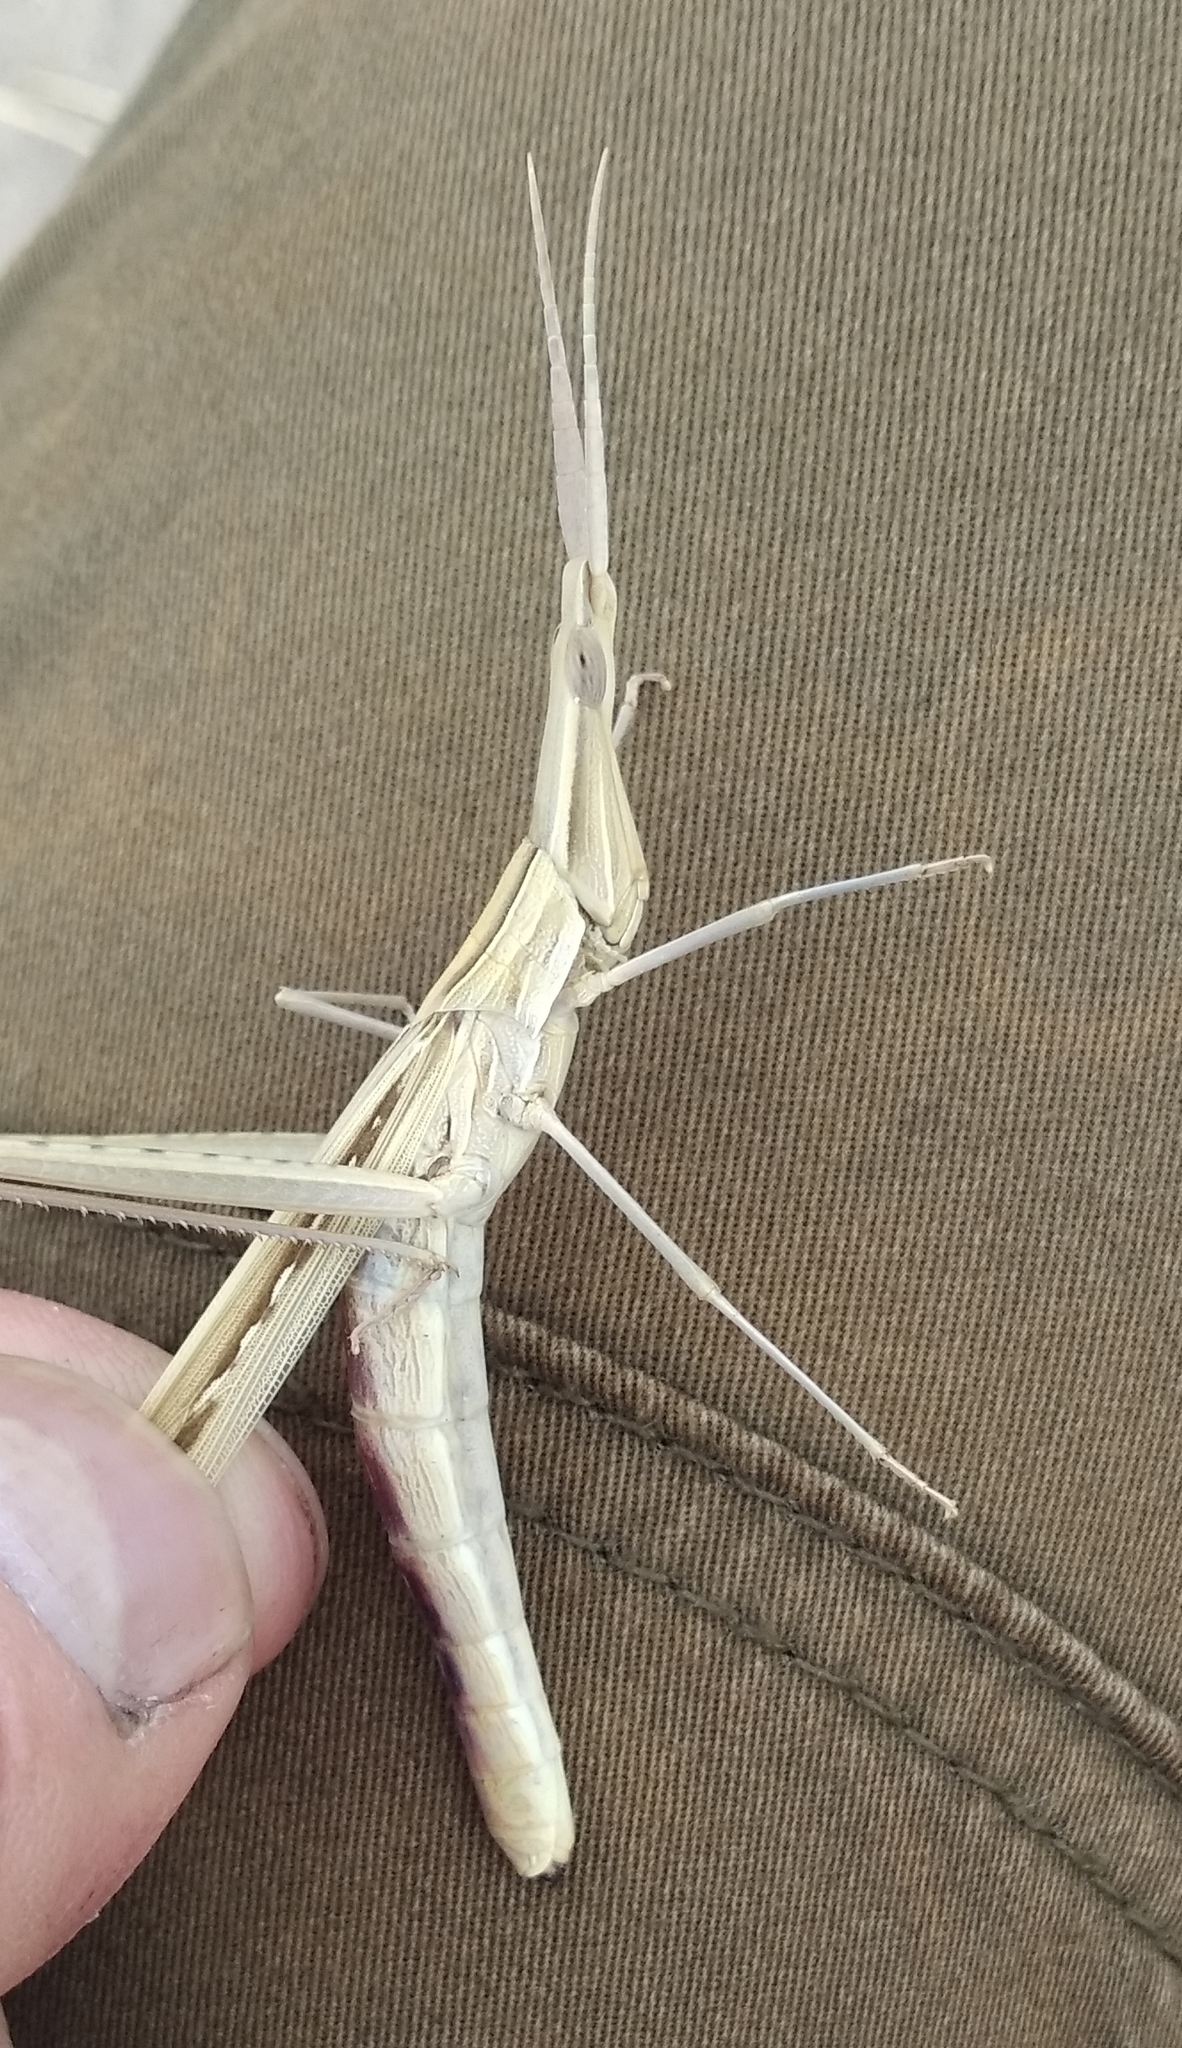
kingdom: Animalia
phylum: Arthropoda
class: Insecta
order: Orthoptera
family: Acrididae
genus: Acrida
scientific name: Acrida ungarica
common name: Common cone-headed grasshopper
